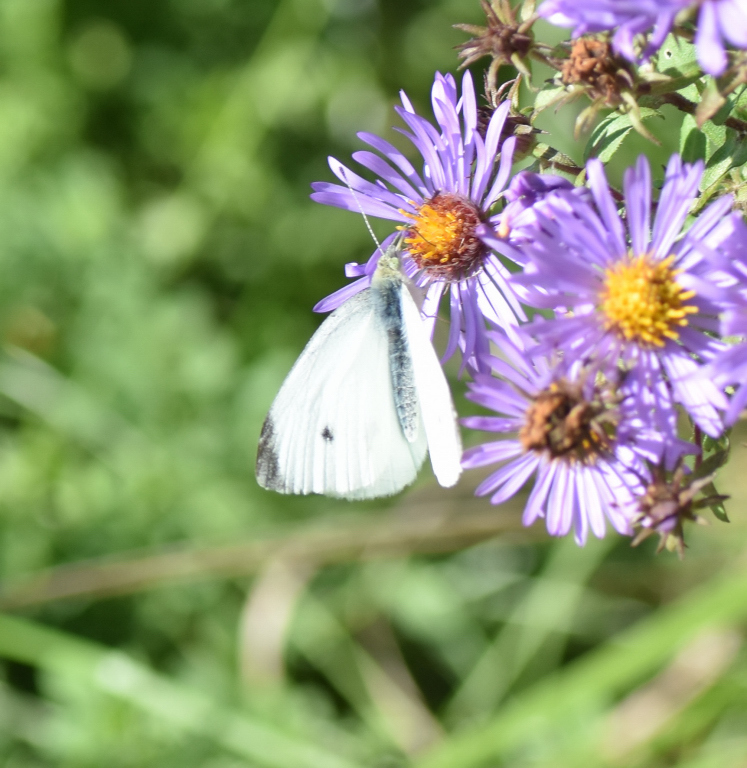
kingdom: Animalia
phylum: Arthropoda
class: Insecta
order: Lepidoptera
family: Pieridae
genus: Pieris
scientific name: Pieris rapae
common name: Small white
